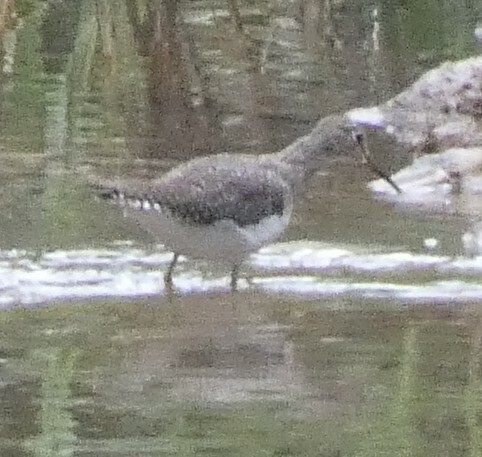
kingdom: Animalia
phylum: Chordata
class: Aves
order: Charadriiformes
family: Scolopacidae
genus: Tringa
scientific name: Tringa solitaria
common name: Solitary sandpiper
